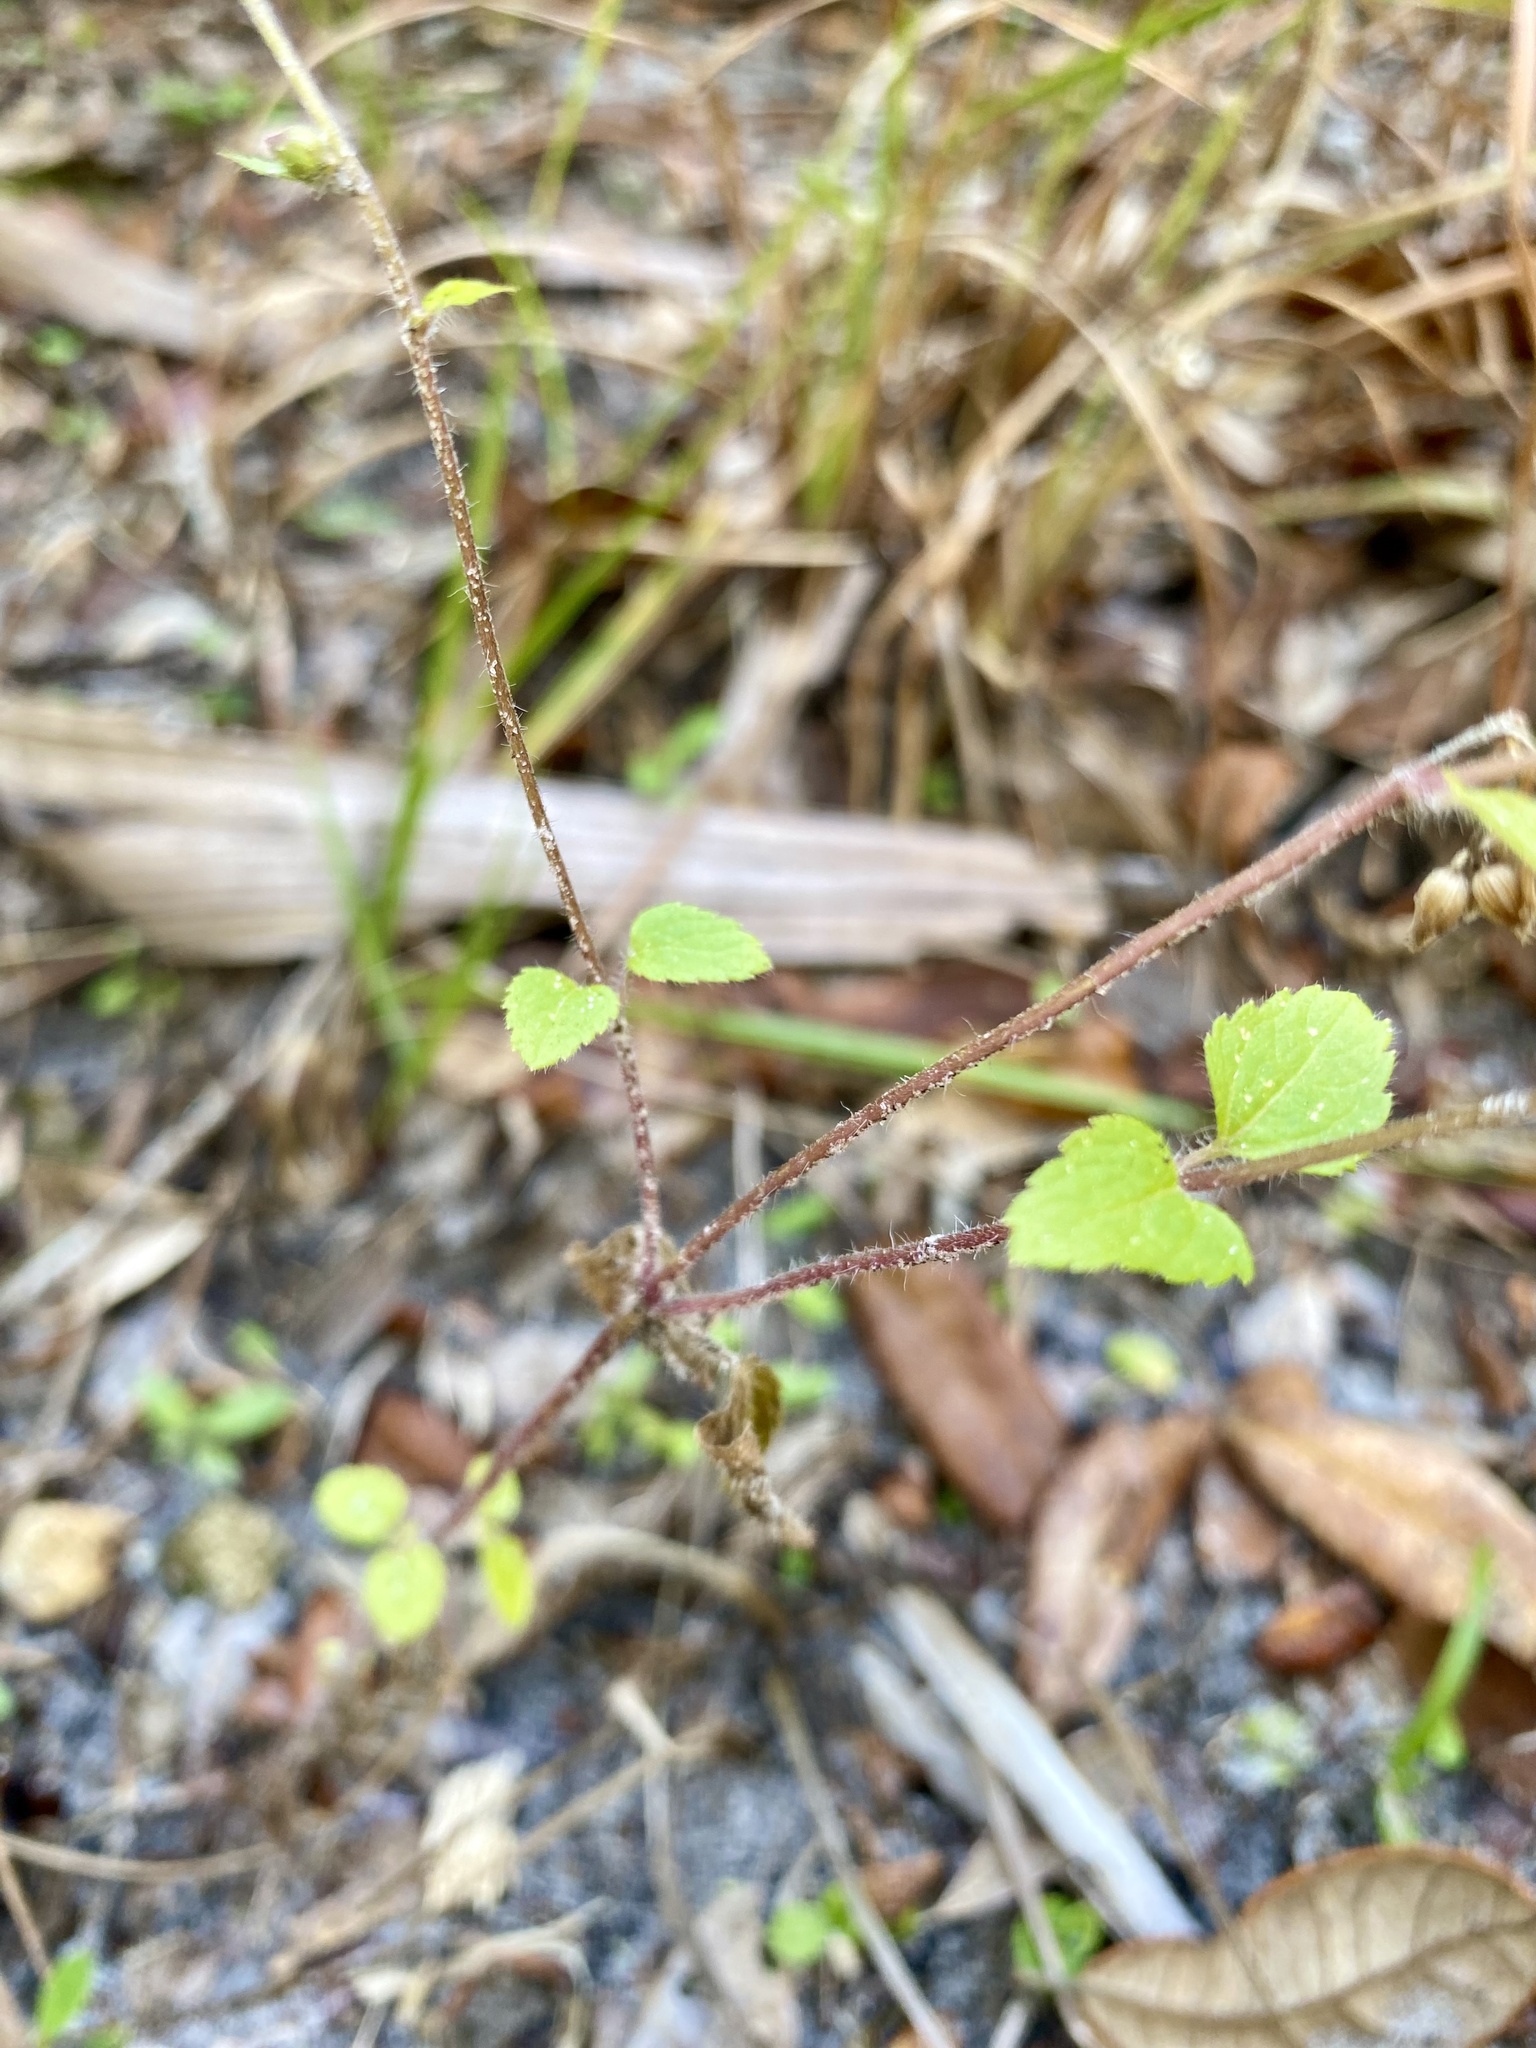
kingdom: Plantae
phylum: Tracheophyta
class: Magnoliopsida
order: Asterales
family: Asteraceae
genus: Ageratum
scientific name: Ageratum conyzoides
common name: Tropical whiteweed
